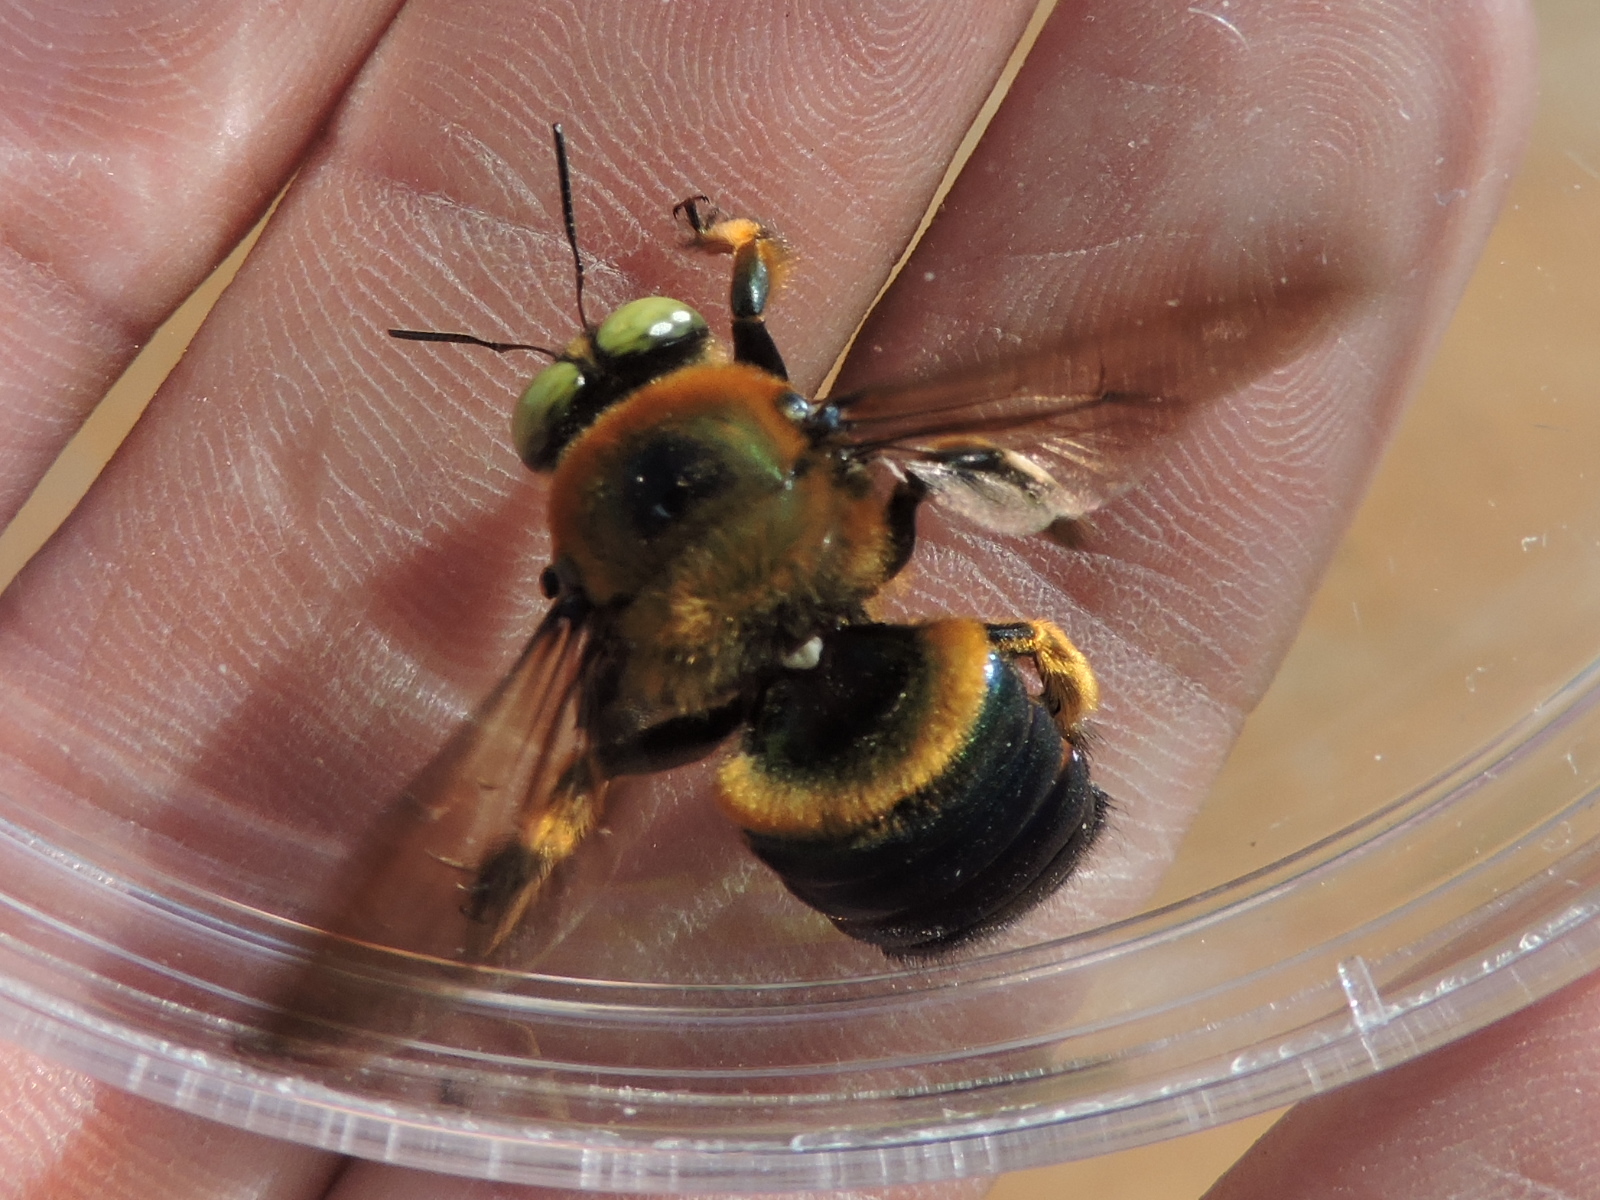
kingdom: Animalia
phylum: Arthropoda
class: Insecta
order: Hymenoptera
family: Apidae
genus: Xylocopa
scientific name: Xylocopa micans
